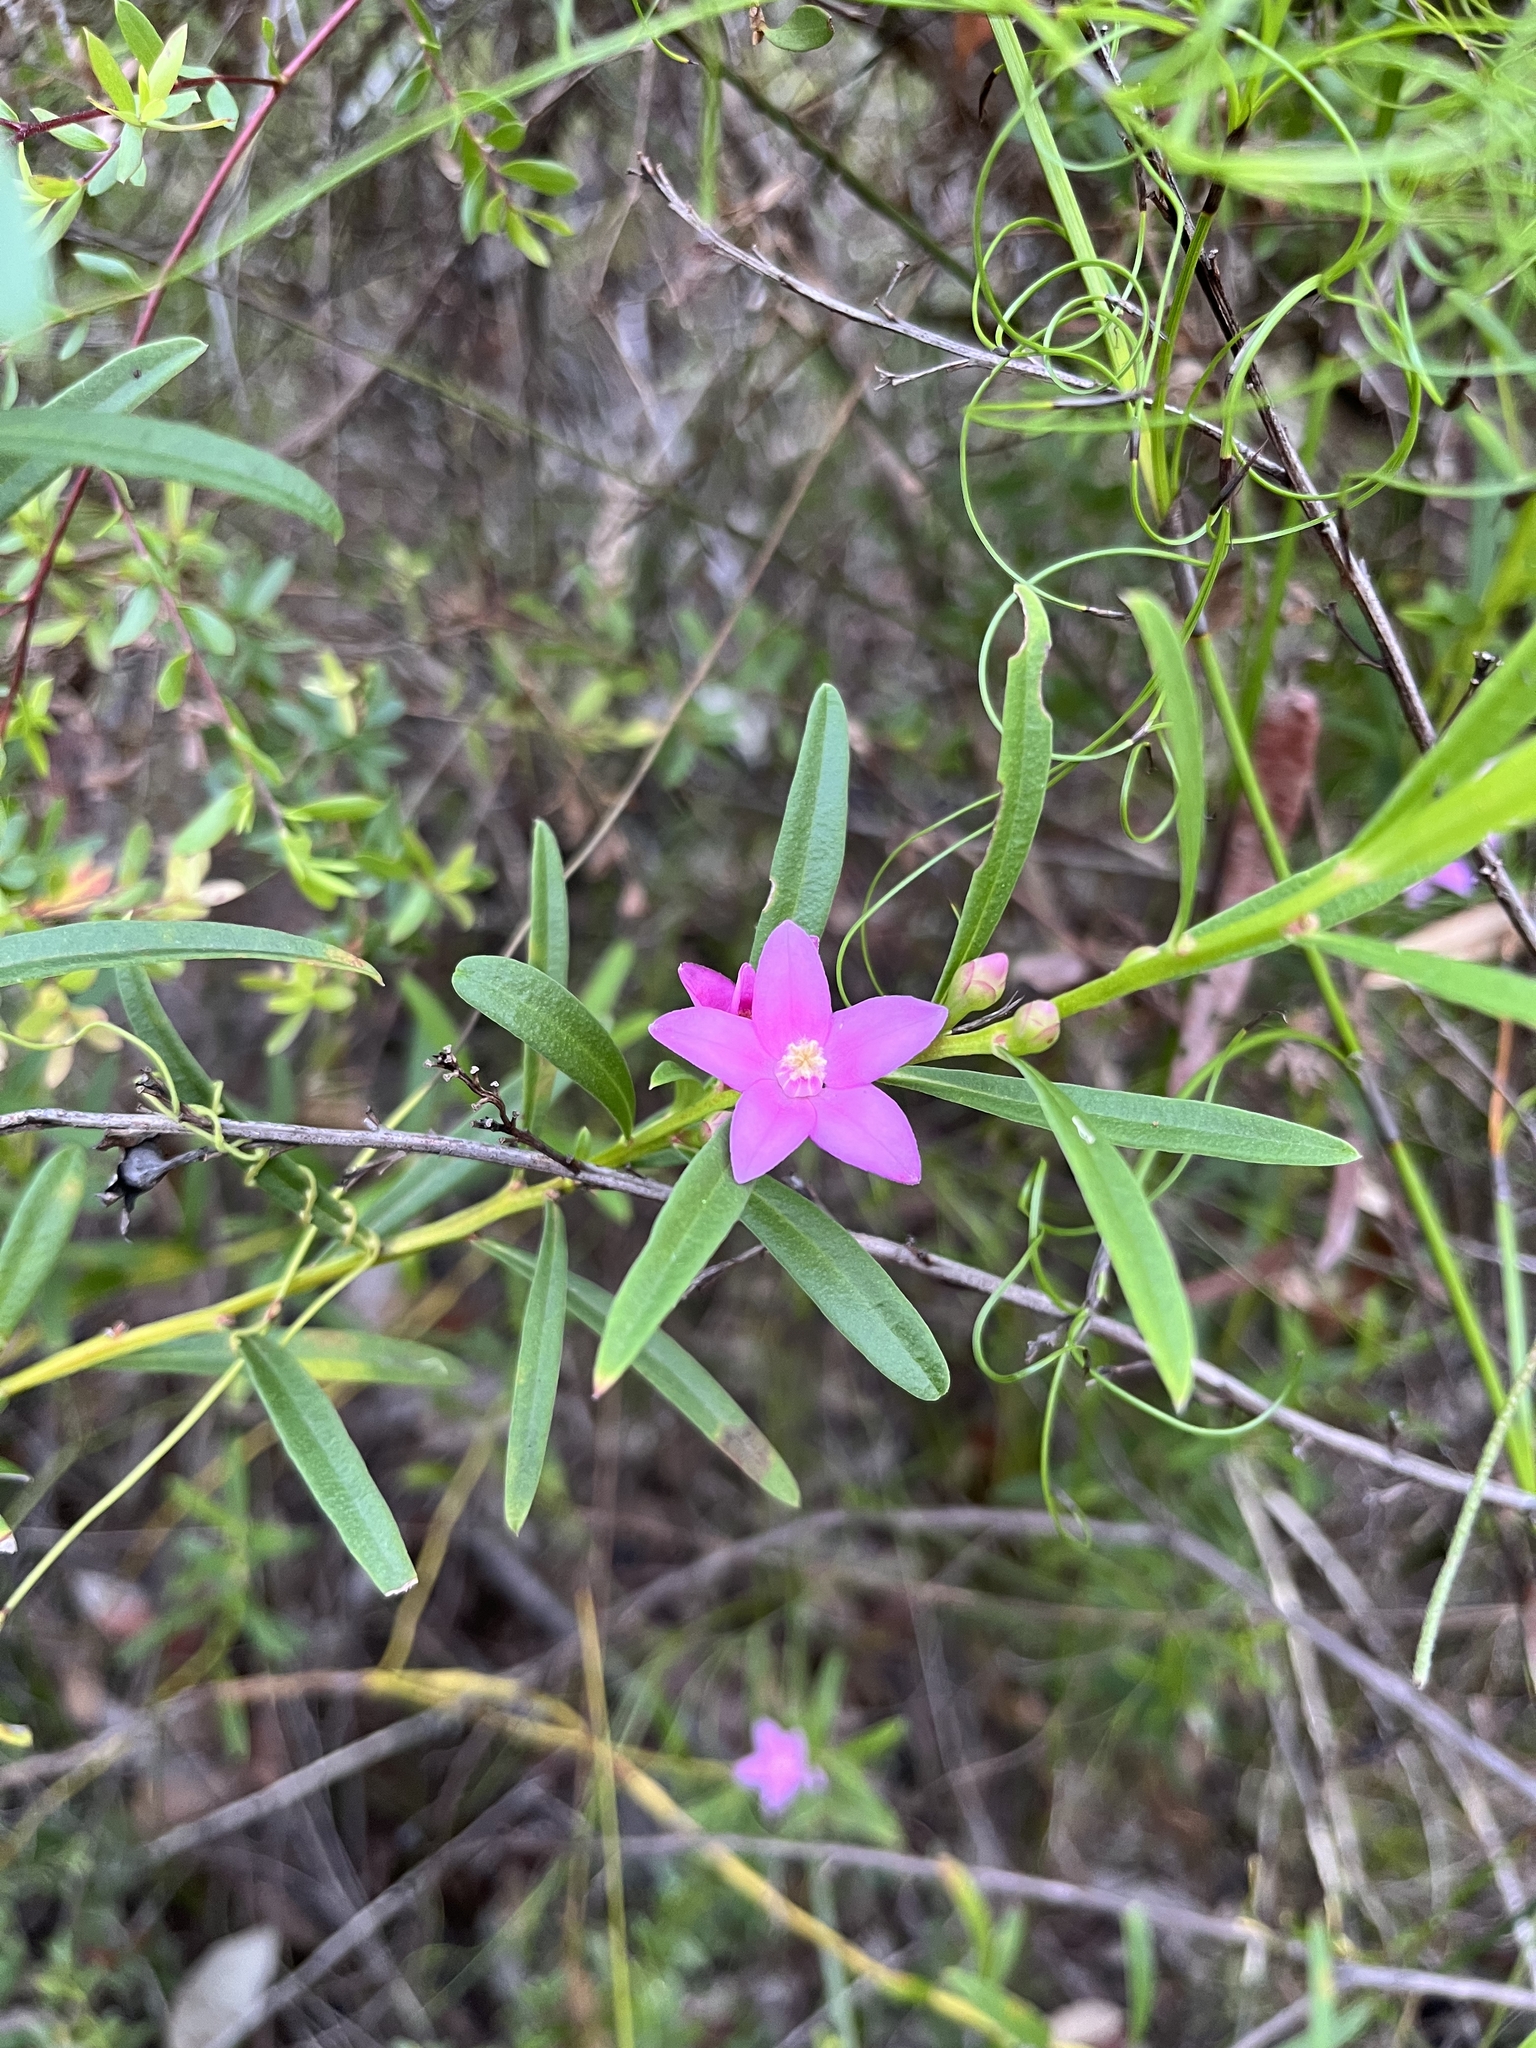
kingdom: Plantae
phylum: Tracheophyta
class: Magnoliopsida
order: Sapindales
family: Rutaceae
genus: Crowea
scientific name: Crowea saligna
